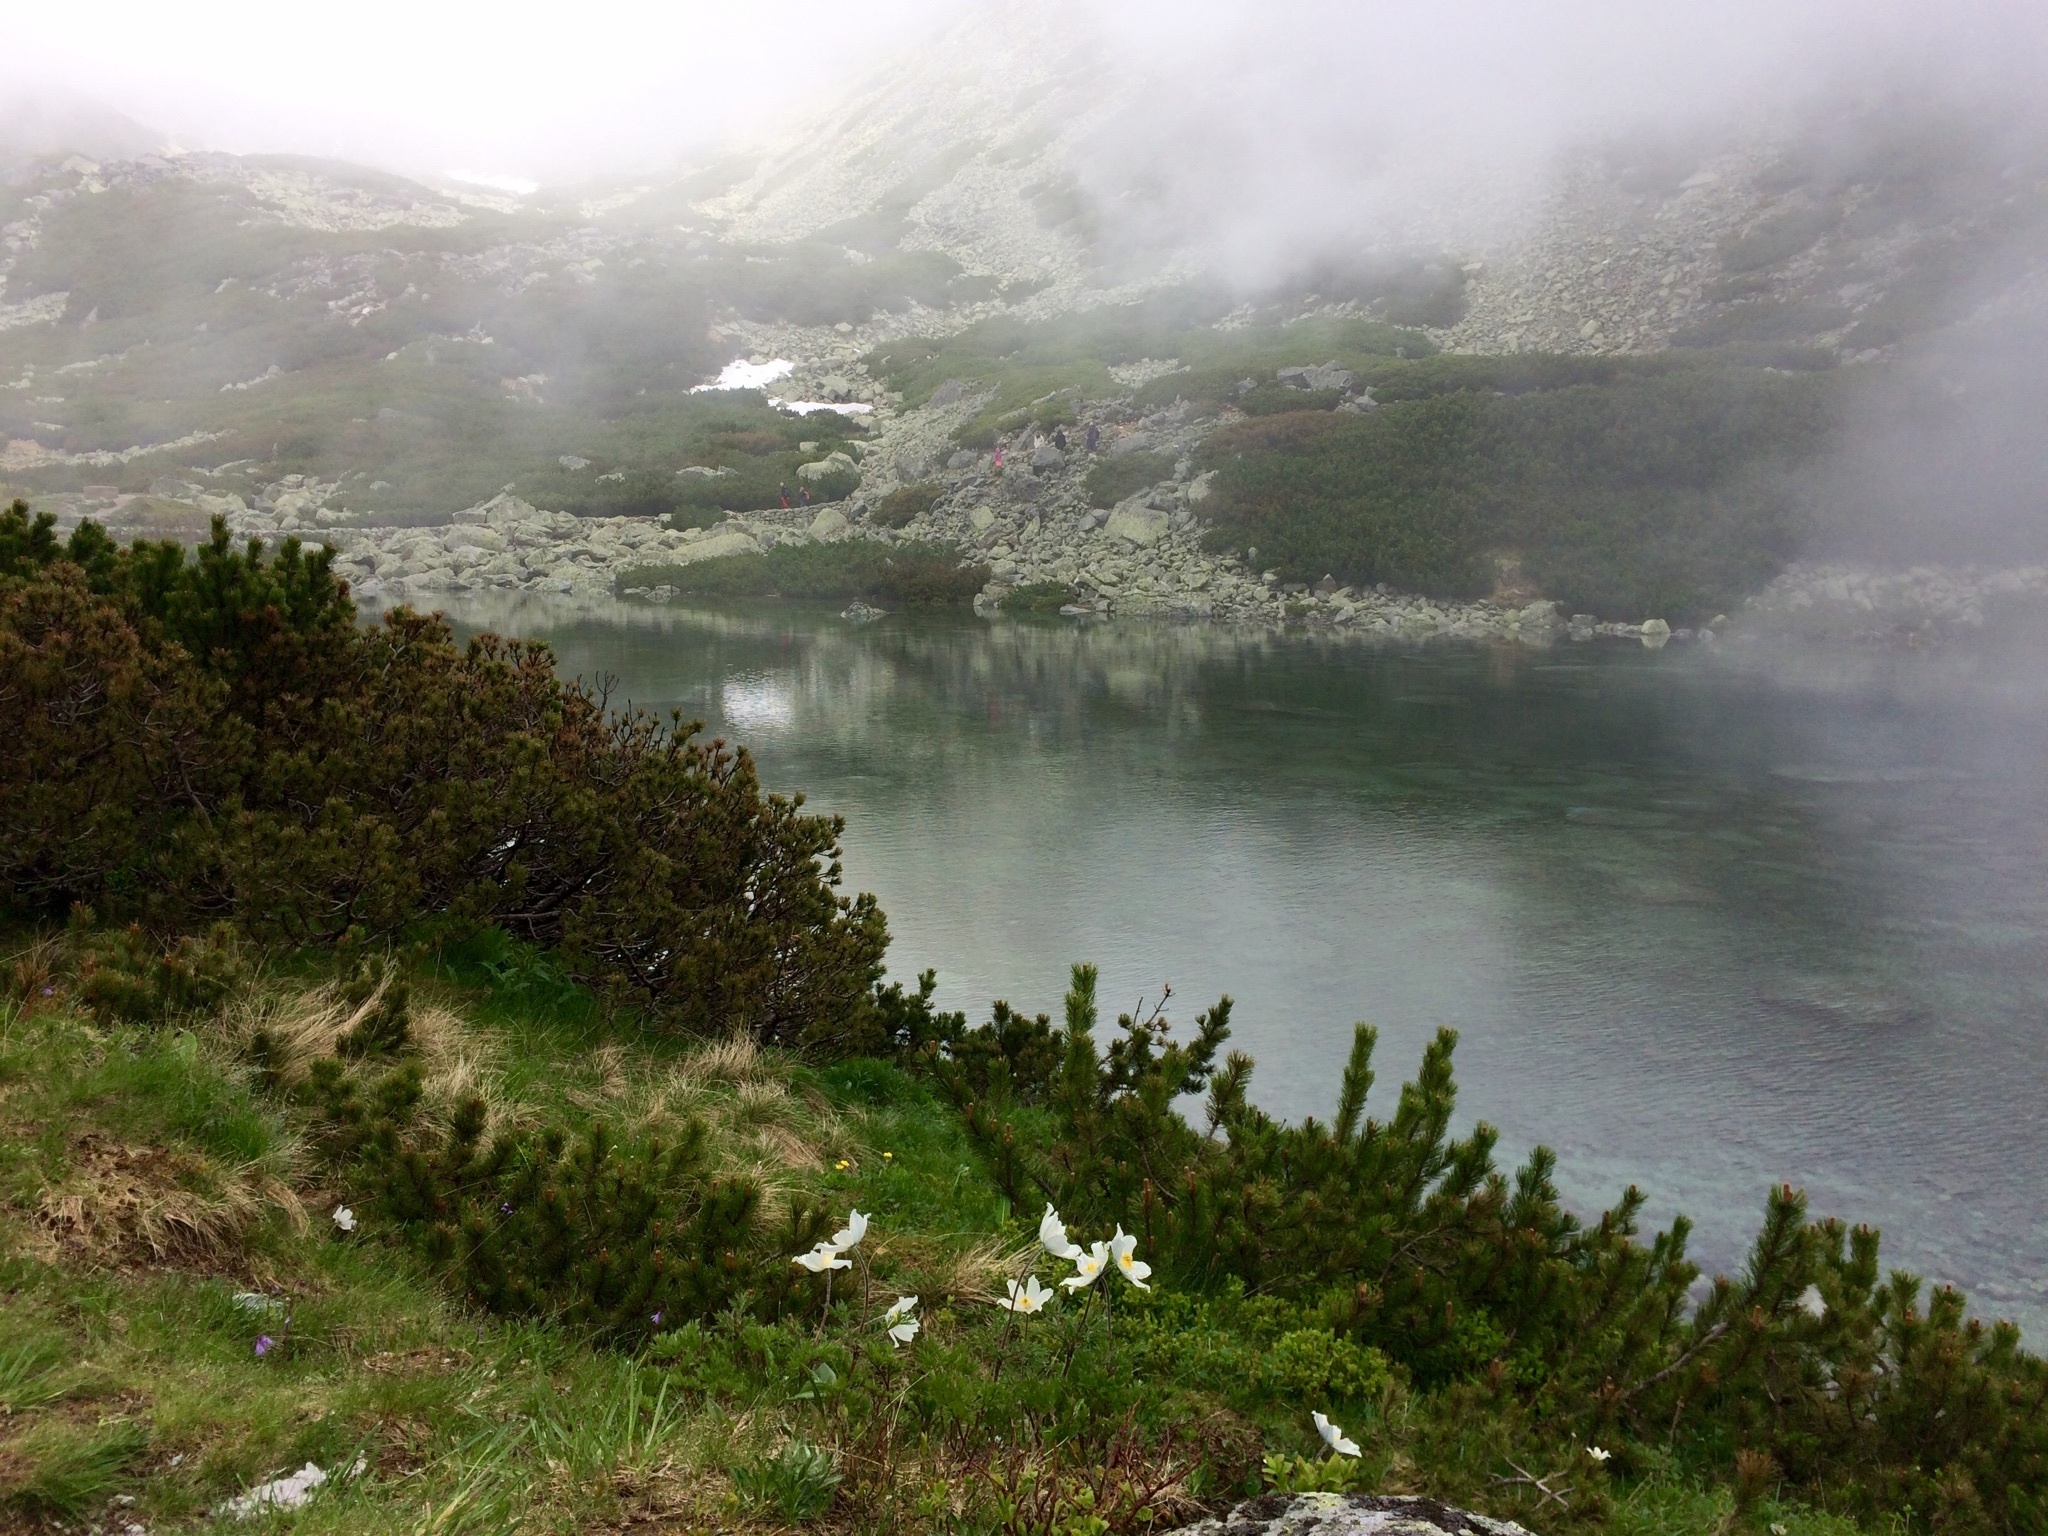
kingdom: Plantae
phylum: Tracheophyta
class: Magnoliopsida
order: Ranunculales
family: Ranunculaceae
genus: Pulsatilla
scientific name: Pulsatilla alpina
